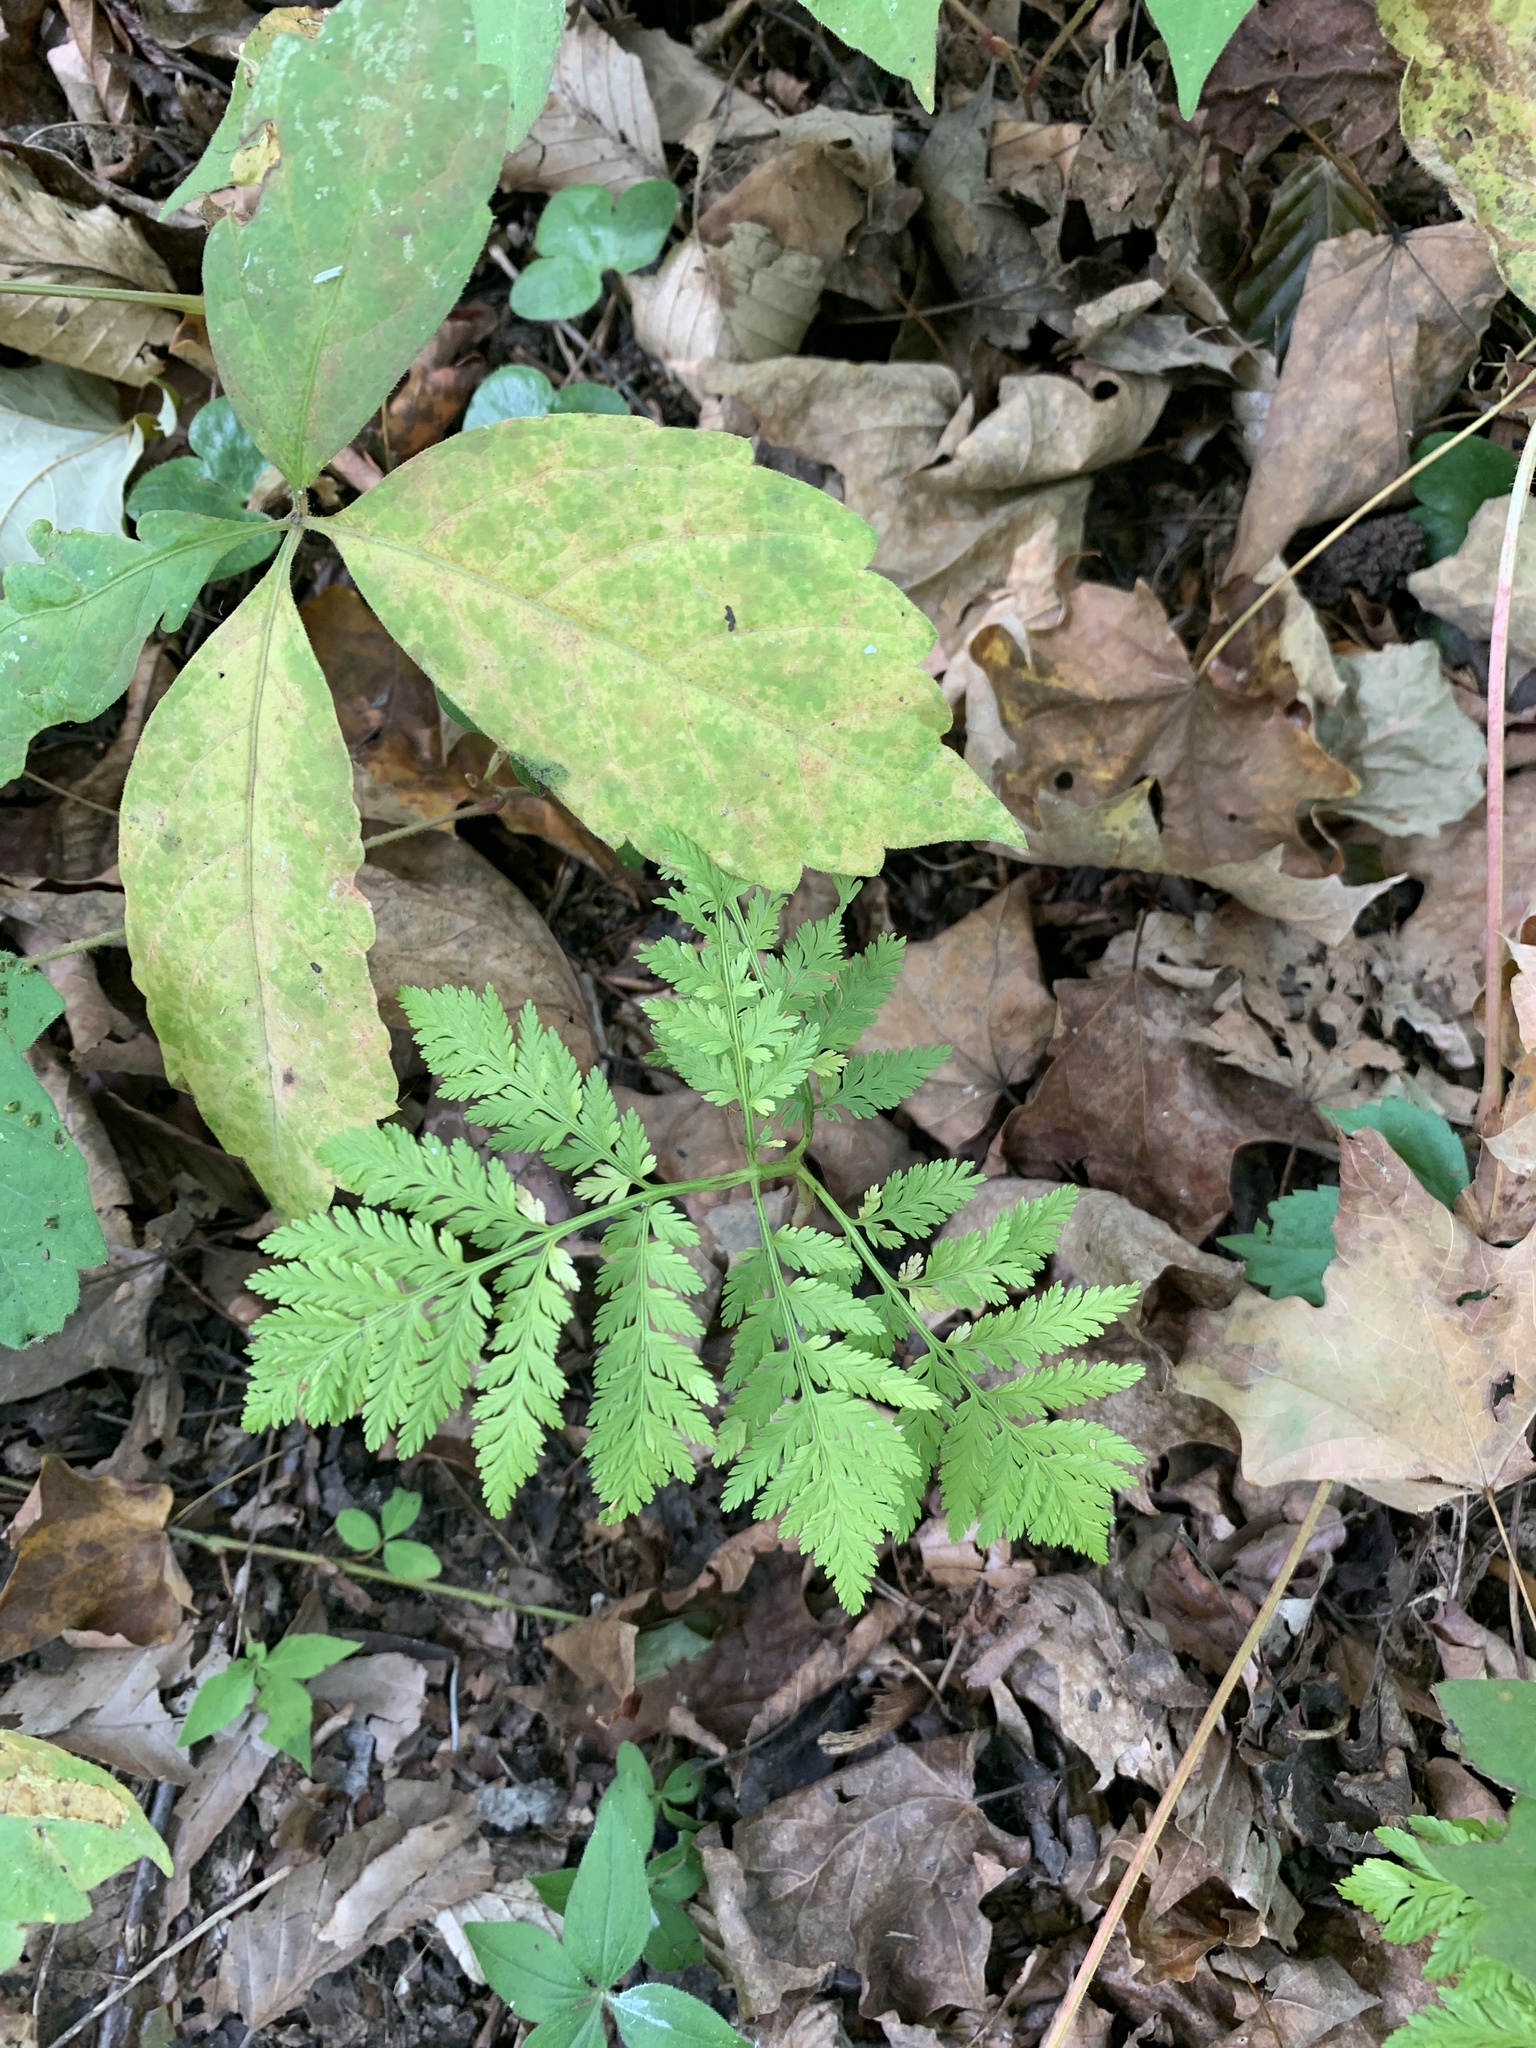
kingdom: Plantae
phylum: Tracheophyta
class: Polypodiopsida
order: Ophioglossales
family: Ophioglossaceae
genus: Botrypus
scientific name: Botrypus virginianus
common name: Common grapefern
